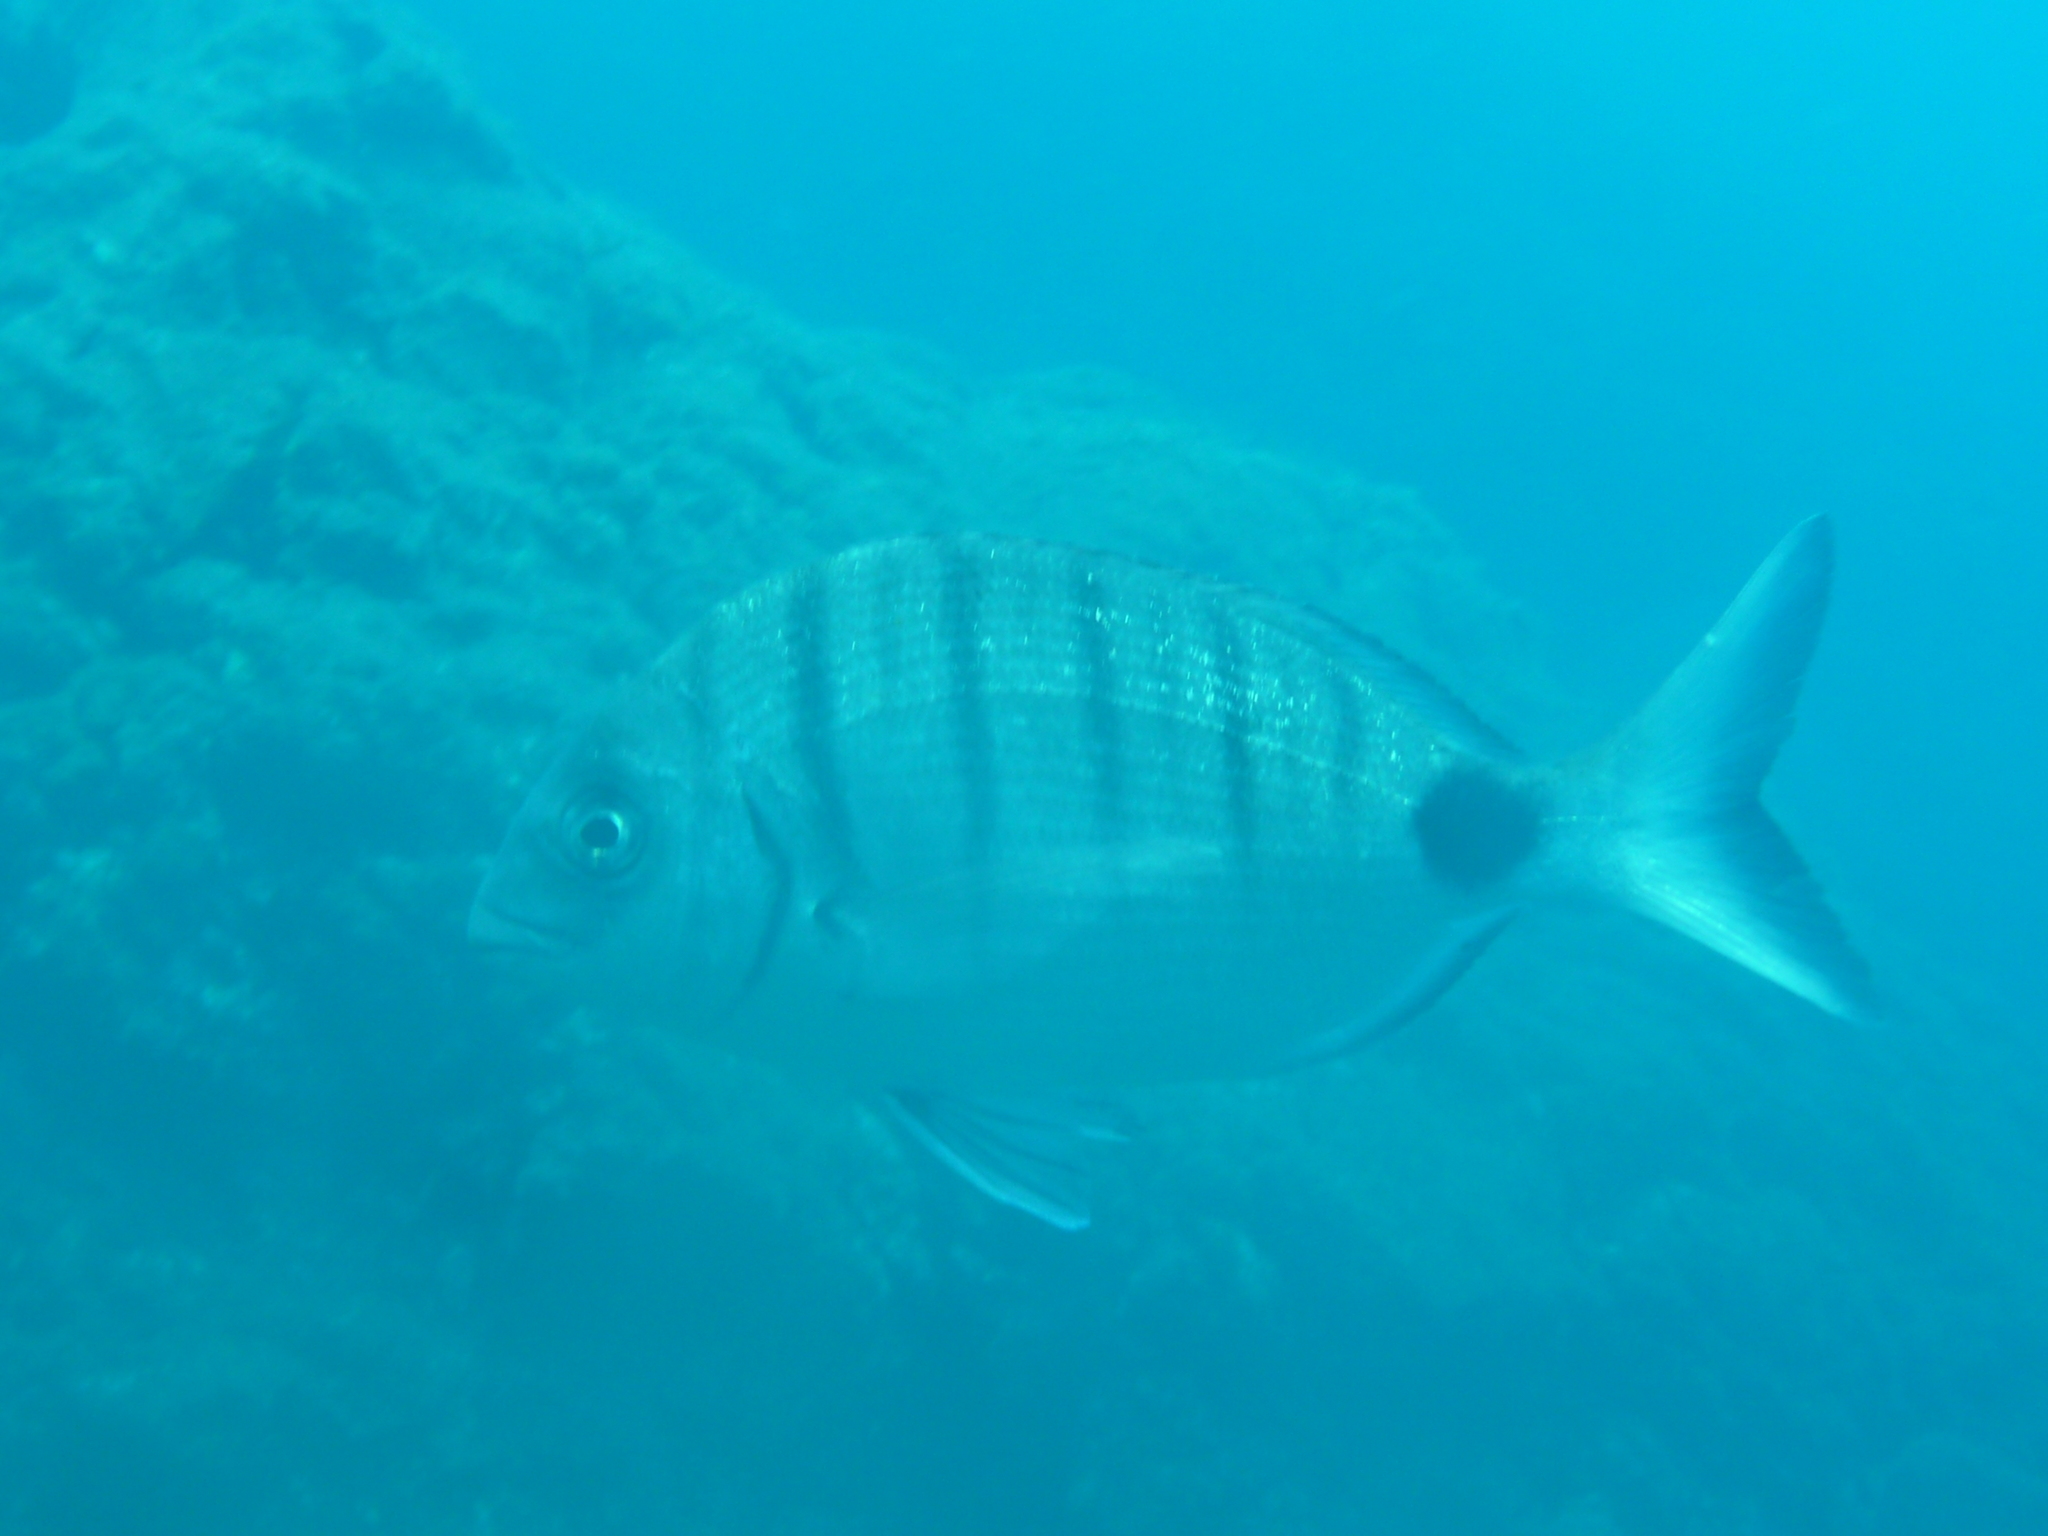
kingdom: Animalia
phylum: Chordata
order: Perciformes
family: Sparidae
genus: Diplodus
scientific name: Diplodus cadenati
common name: Moroccan white seabream
